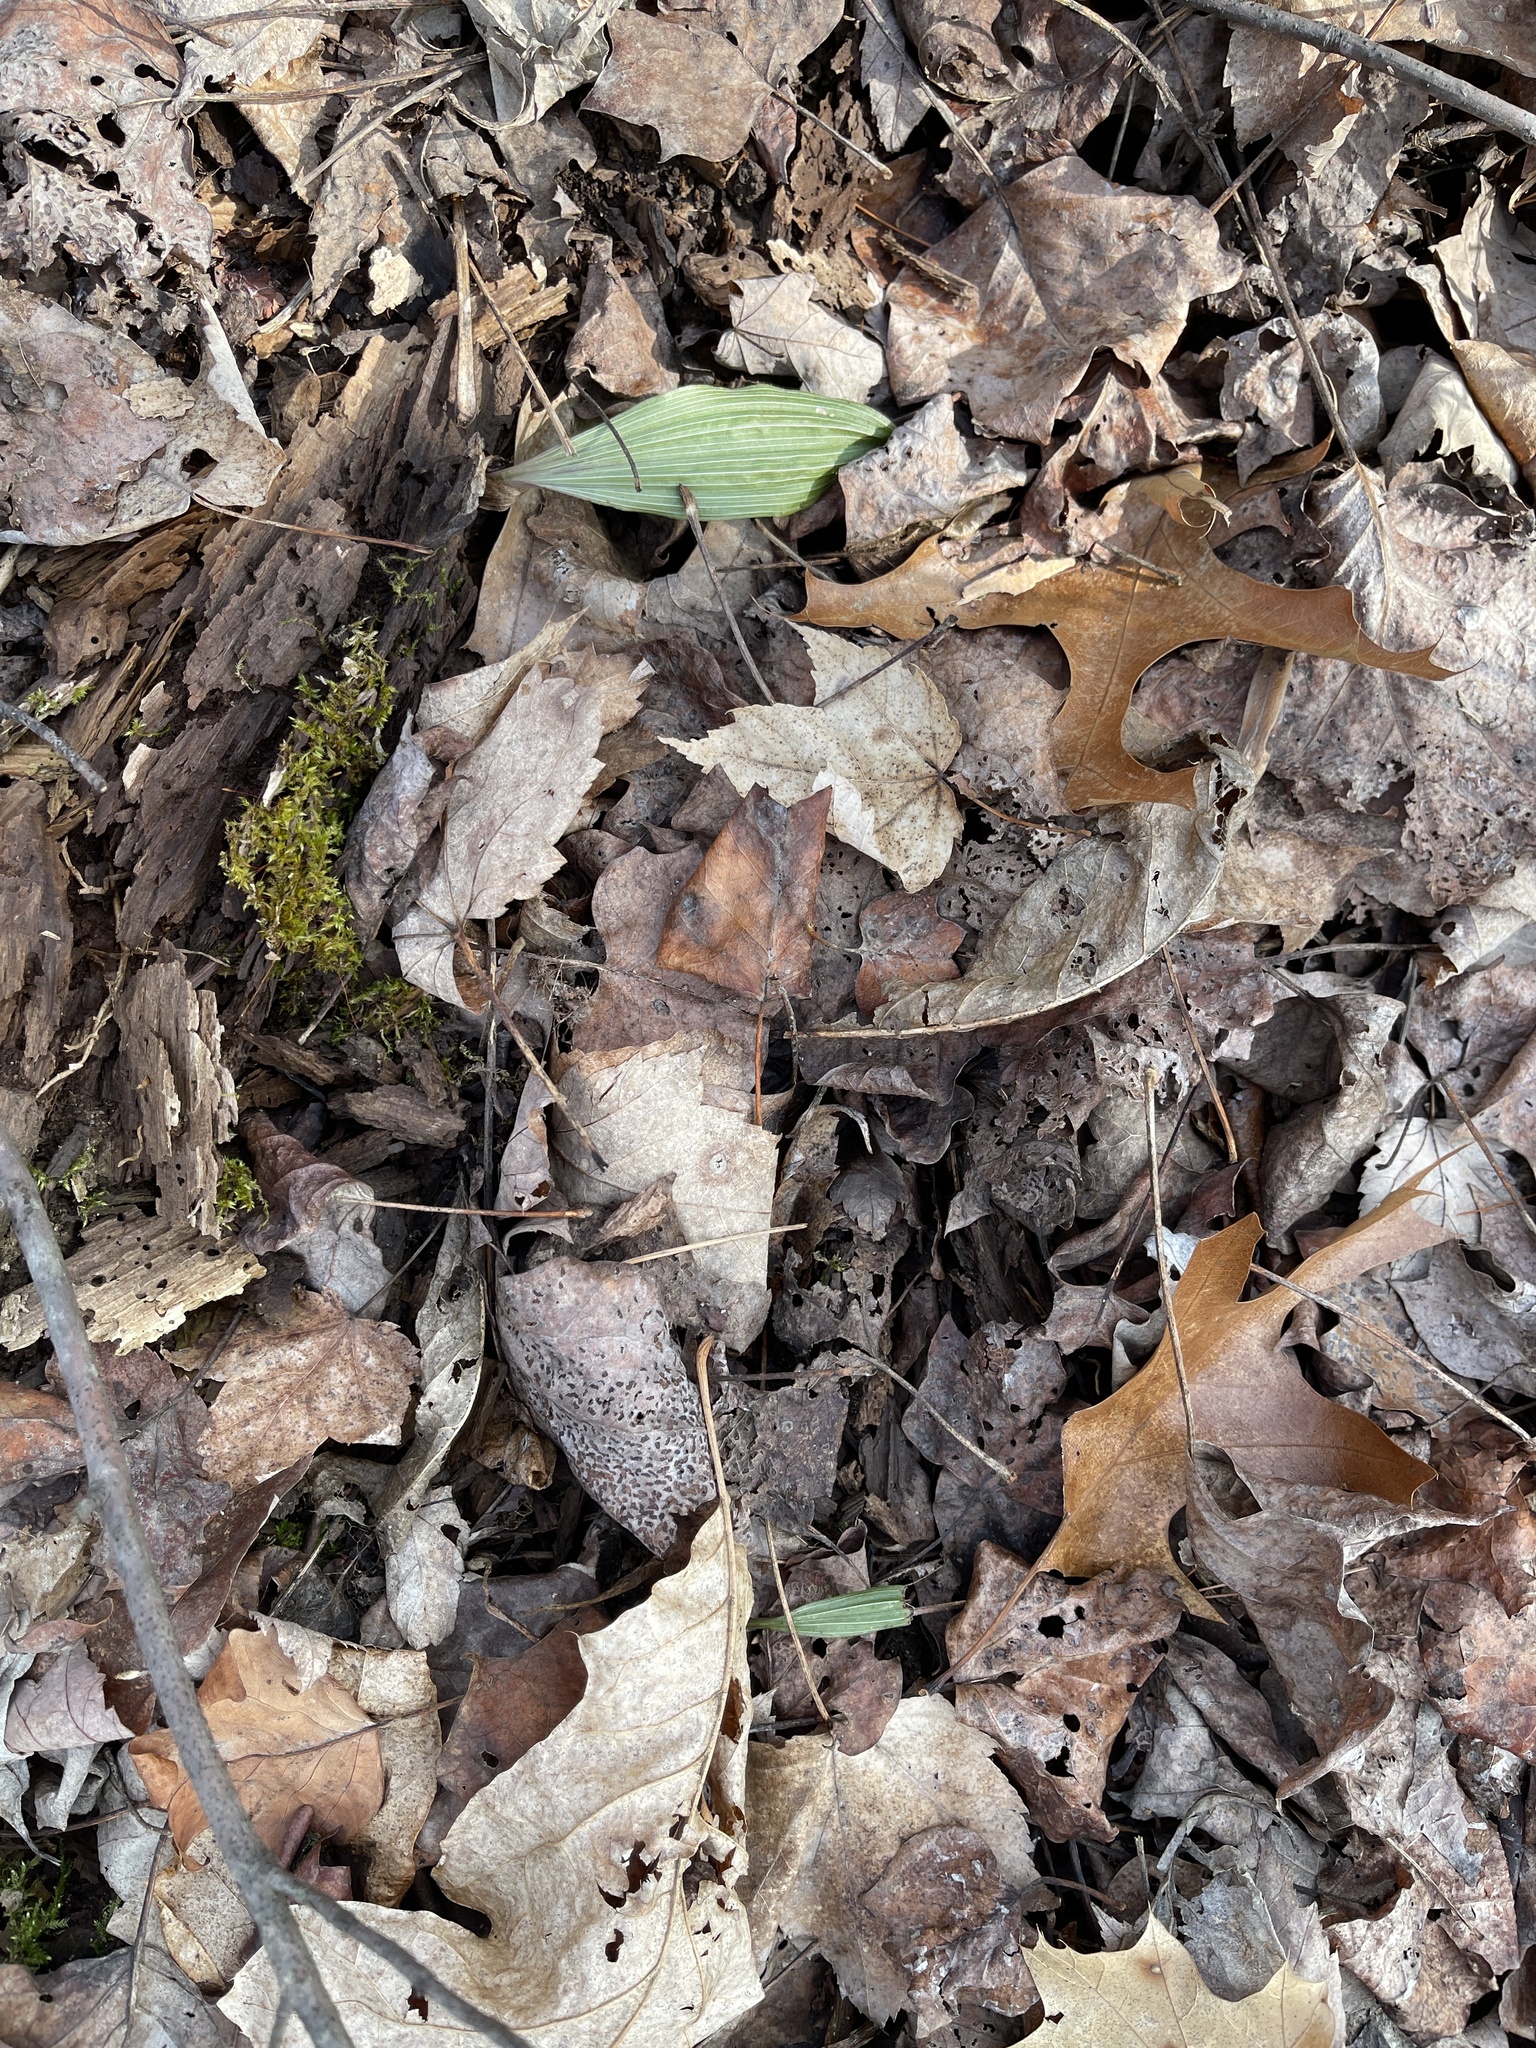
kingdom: Plantae
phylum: Tracheophyta
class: Liliopsida
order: Asparagales
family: Orchidaceae
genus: Aplectrum
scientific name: Aplectrum hyemale
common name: Adam-and-eve
